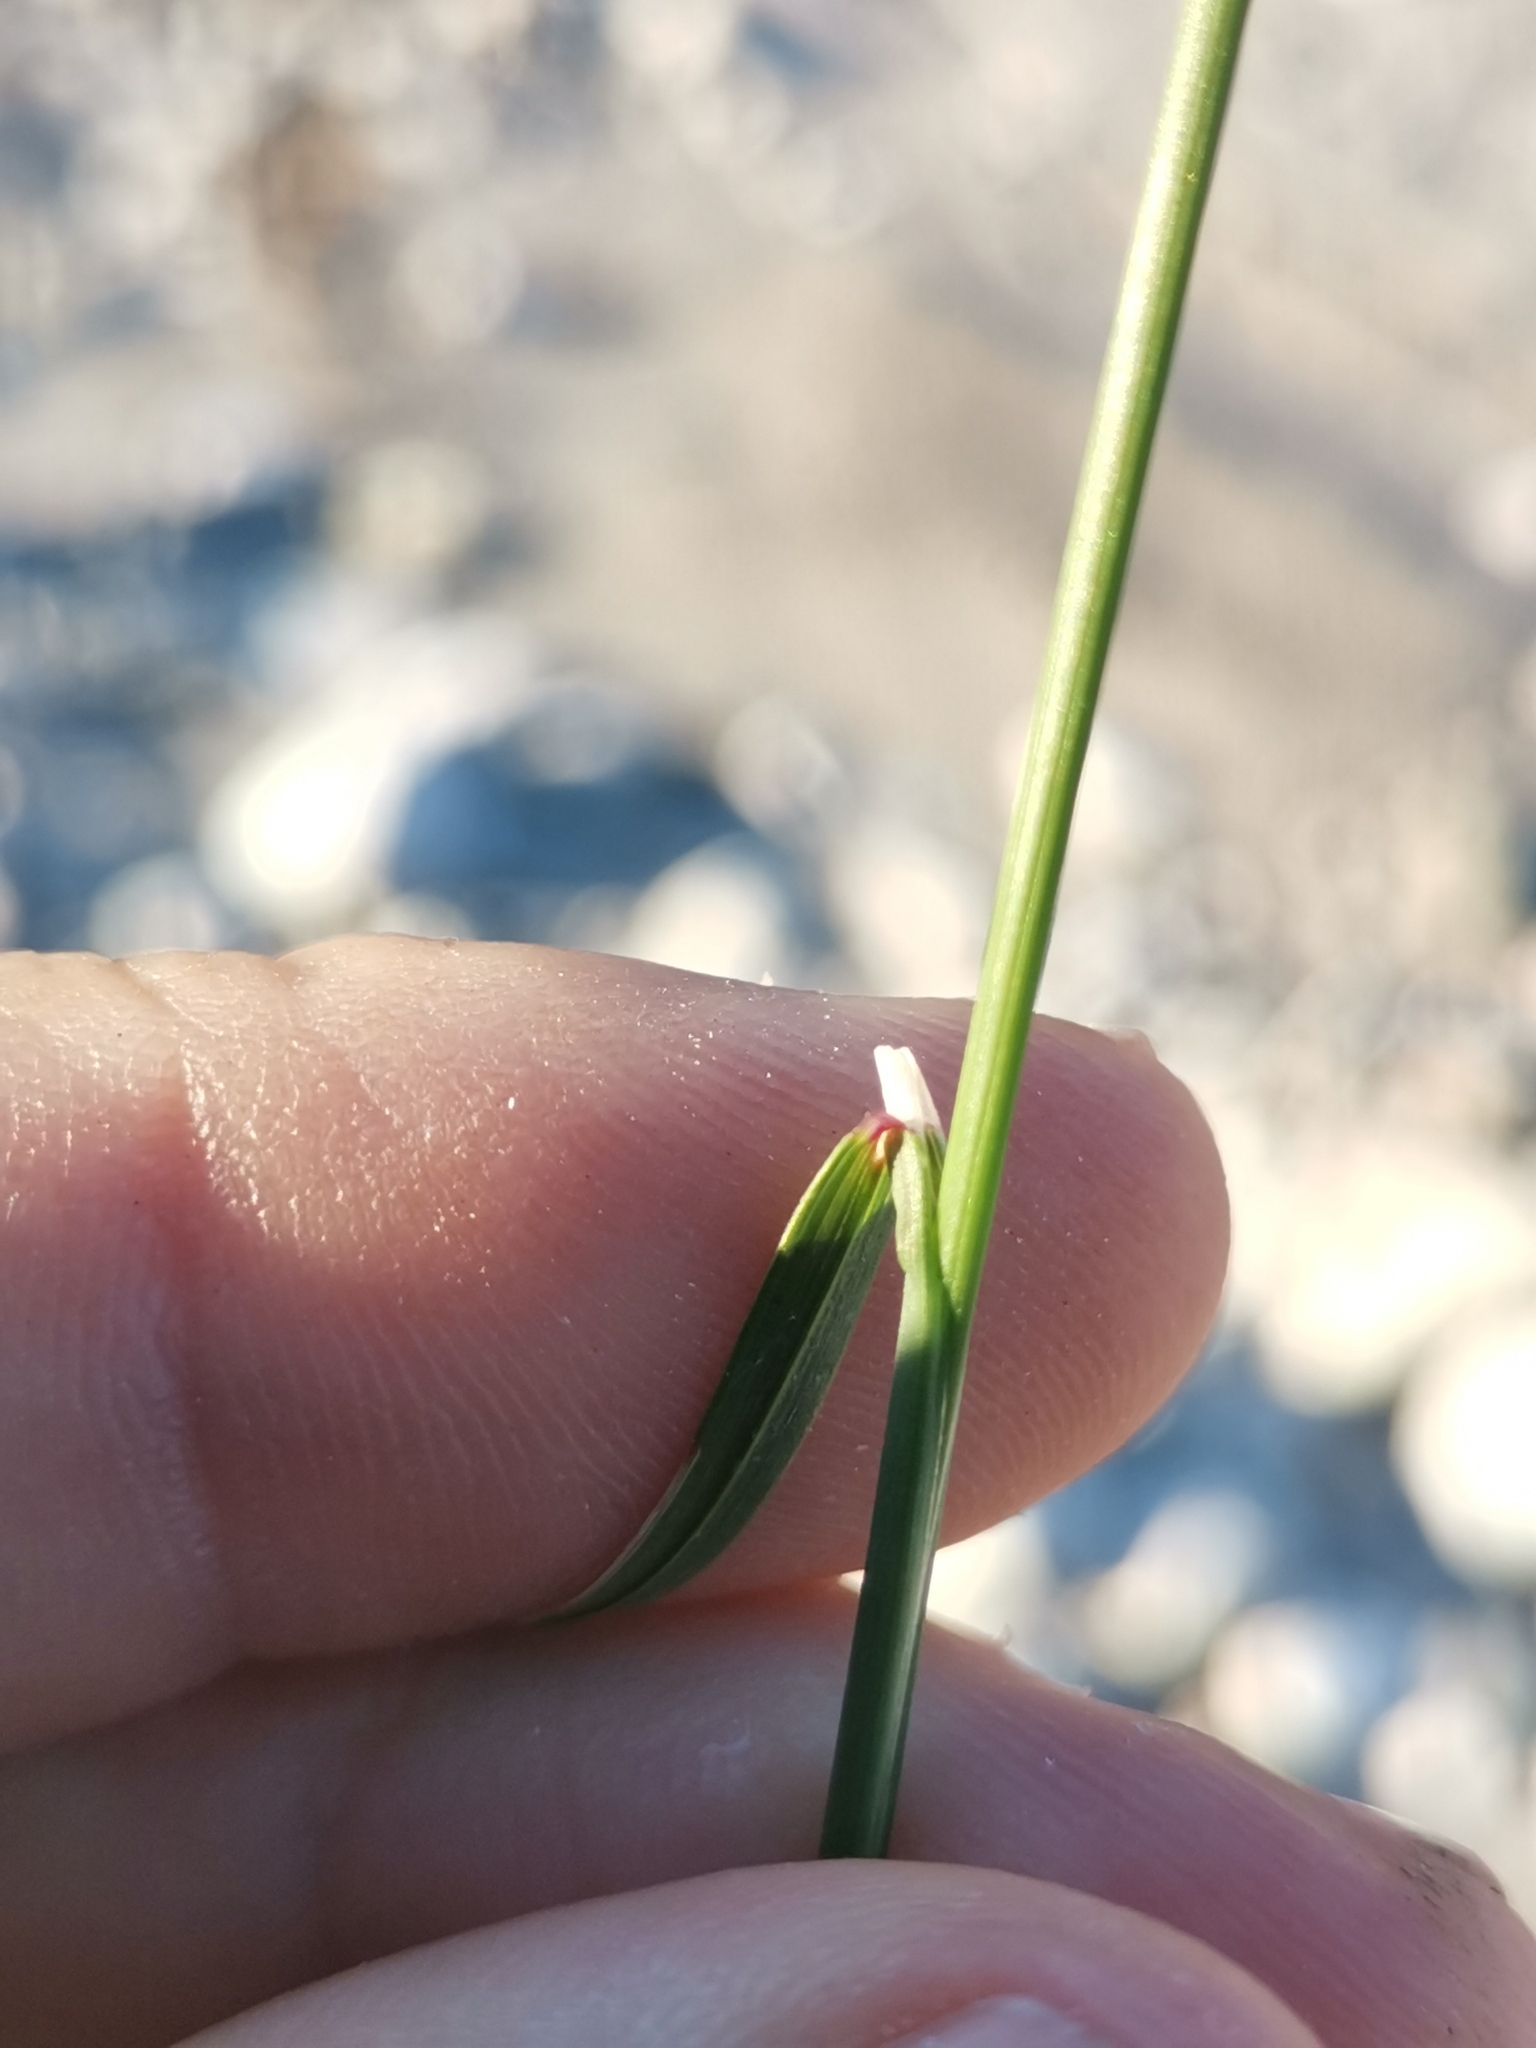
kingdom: Plantae
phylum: Tracheophyta
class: Liliopsida
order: Poales
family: Poaceae
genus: Poa
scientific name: Poa compressa
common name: Canada bluegrass
